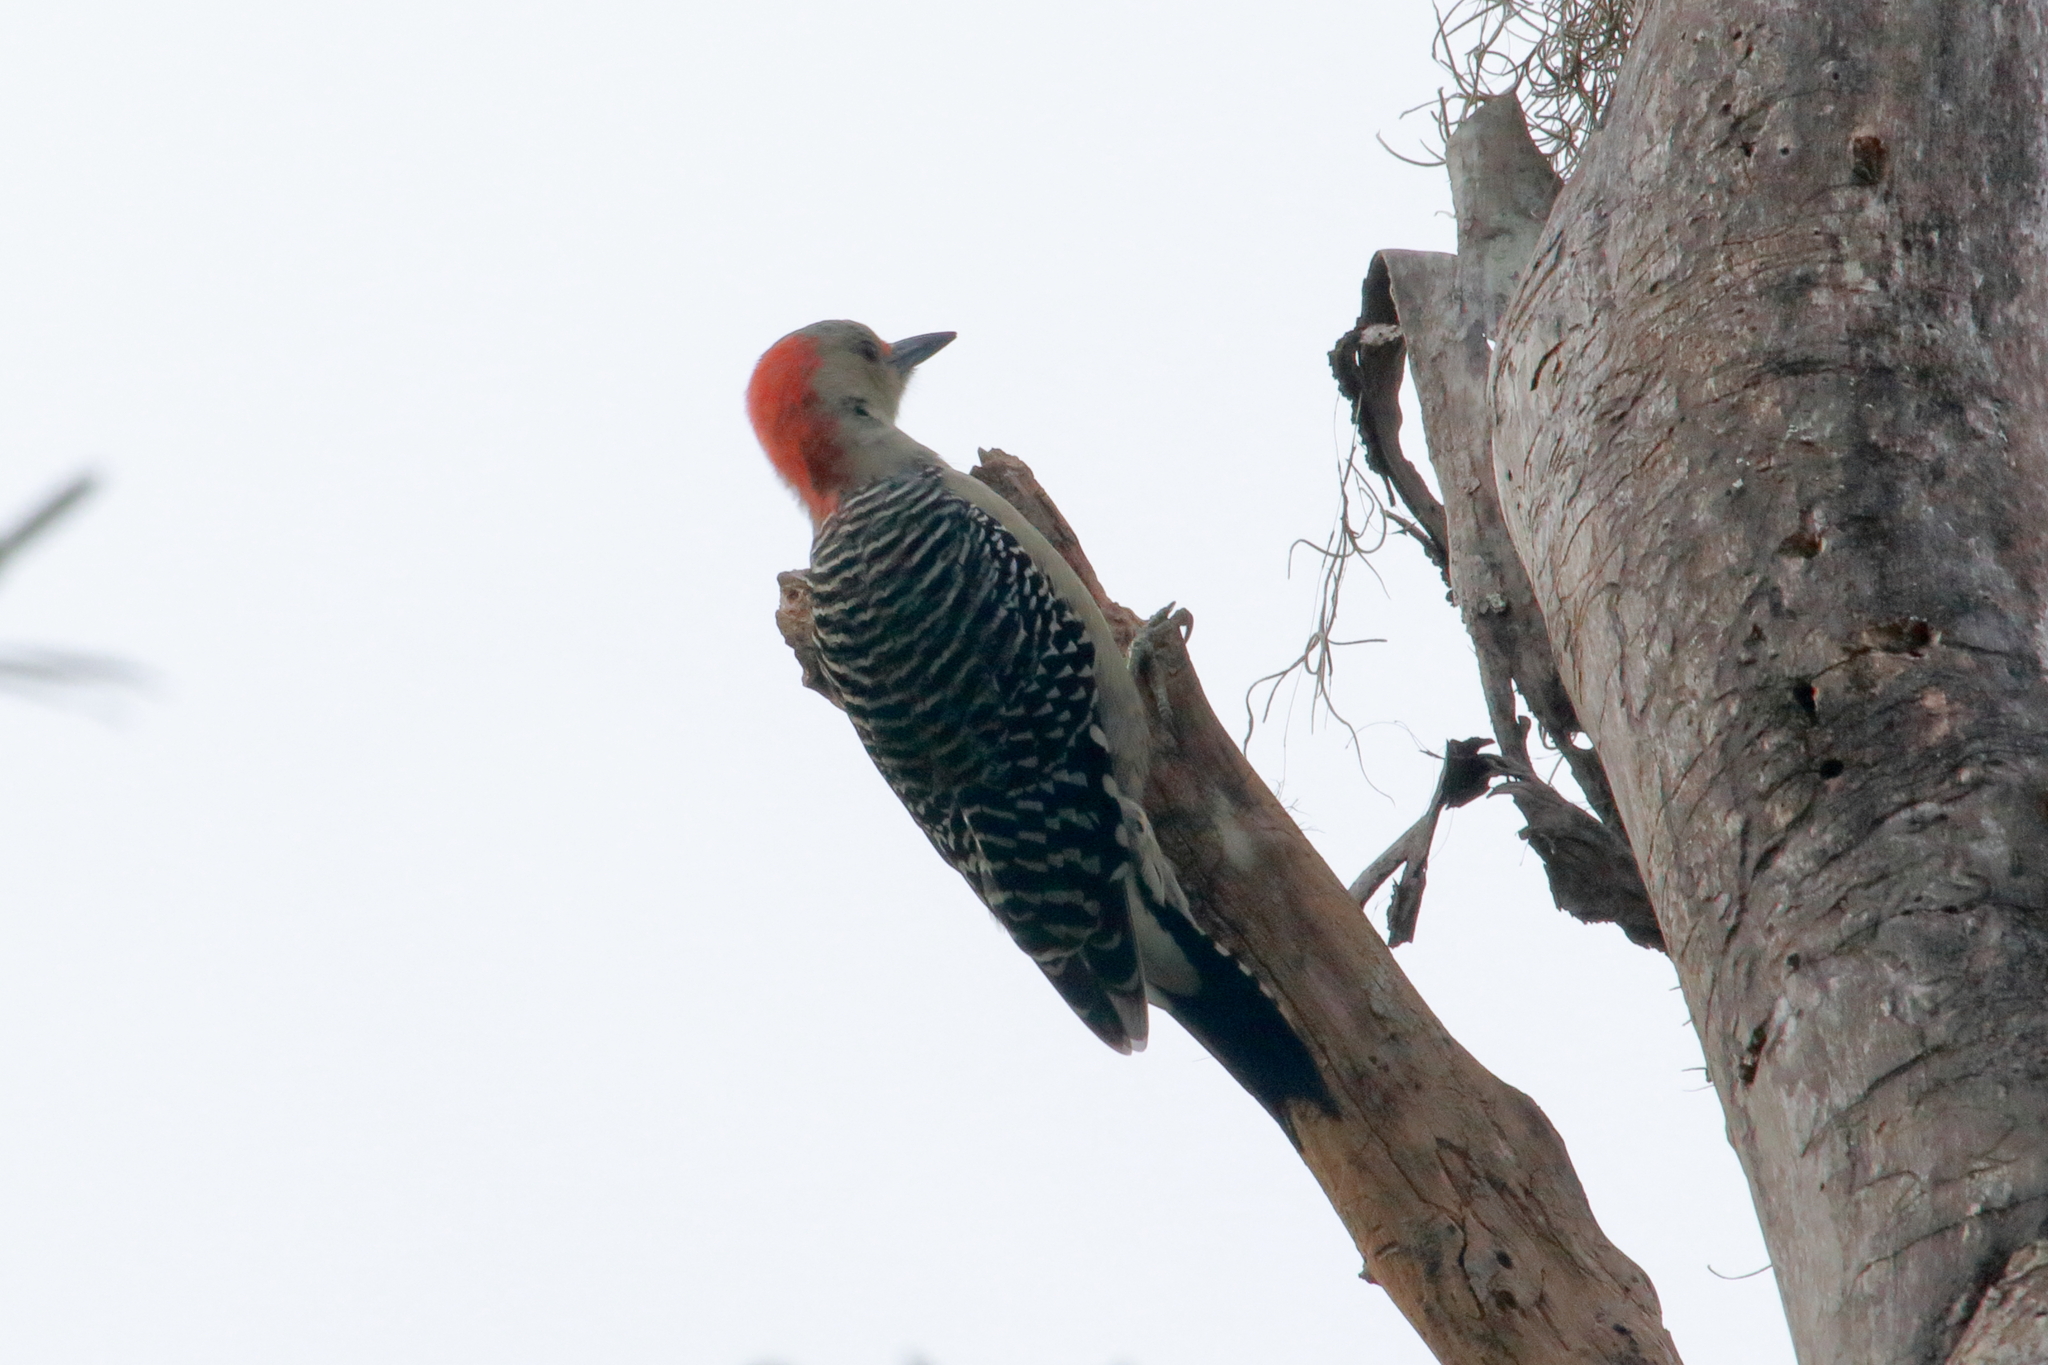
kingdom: Animalia
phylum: Chordata
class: Aves
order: Piciformes
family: Picidae
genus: Melanerpes
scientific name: Melanerpes carolinus
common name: Red-bellied woodpecker
